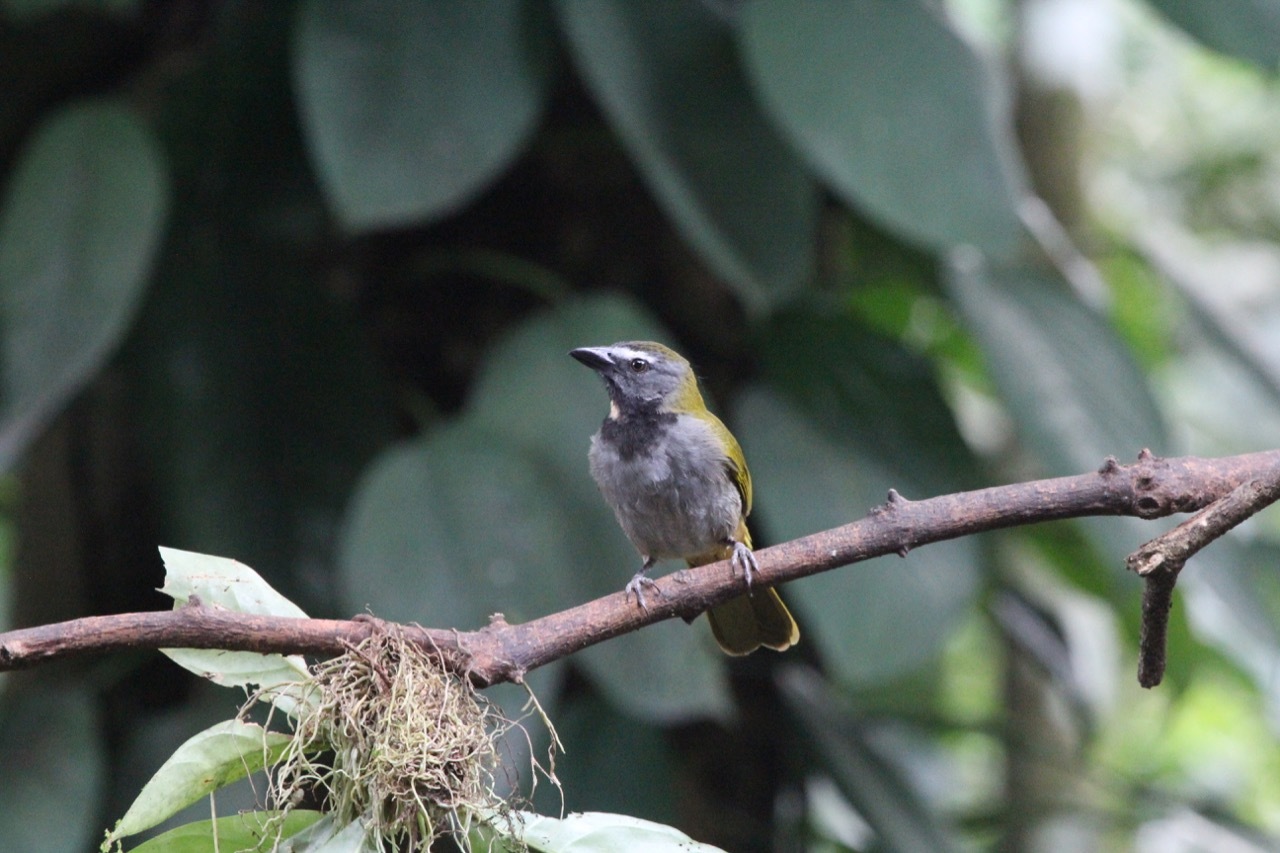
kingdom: Animalia
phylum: Chordata
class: Aves
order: Passeriformes
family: Thraupidae
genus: Saltator
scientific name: Saltator maximus
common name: Buff-throated saltator
